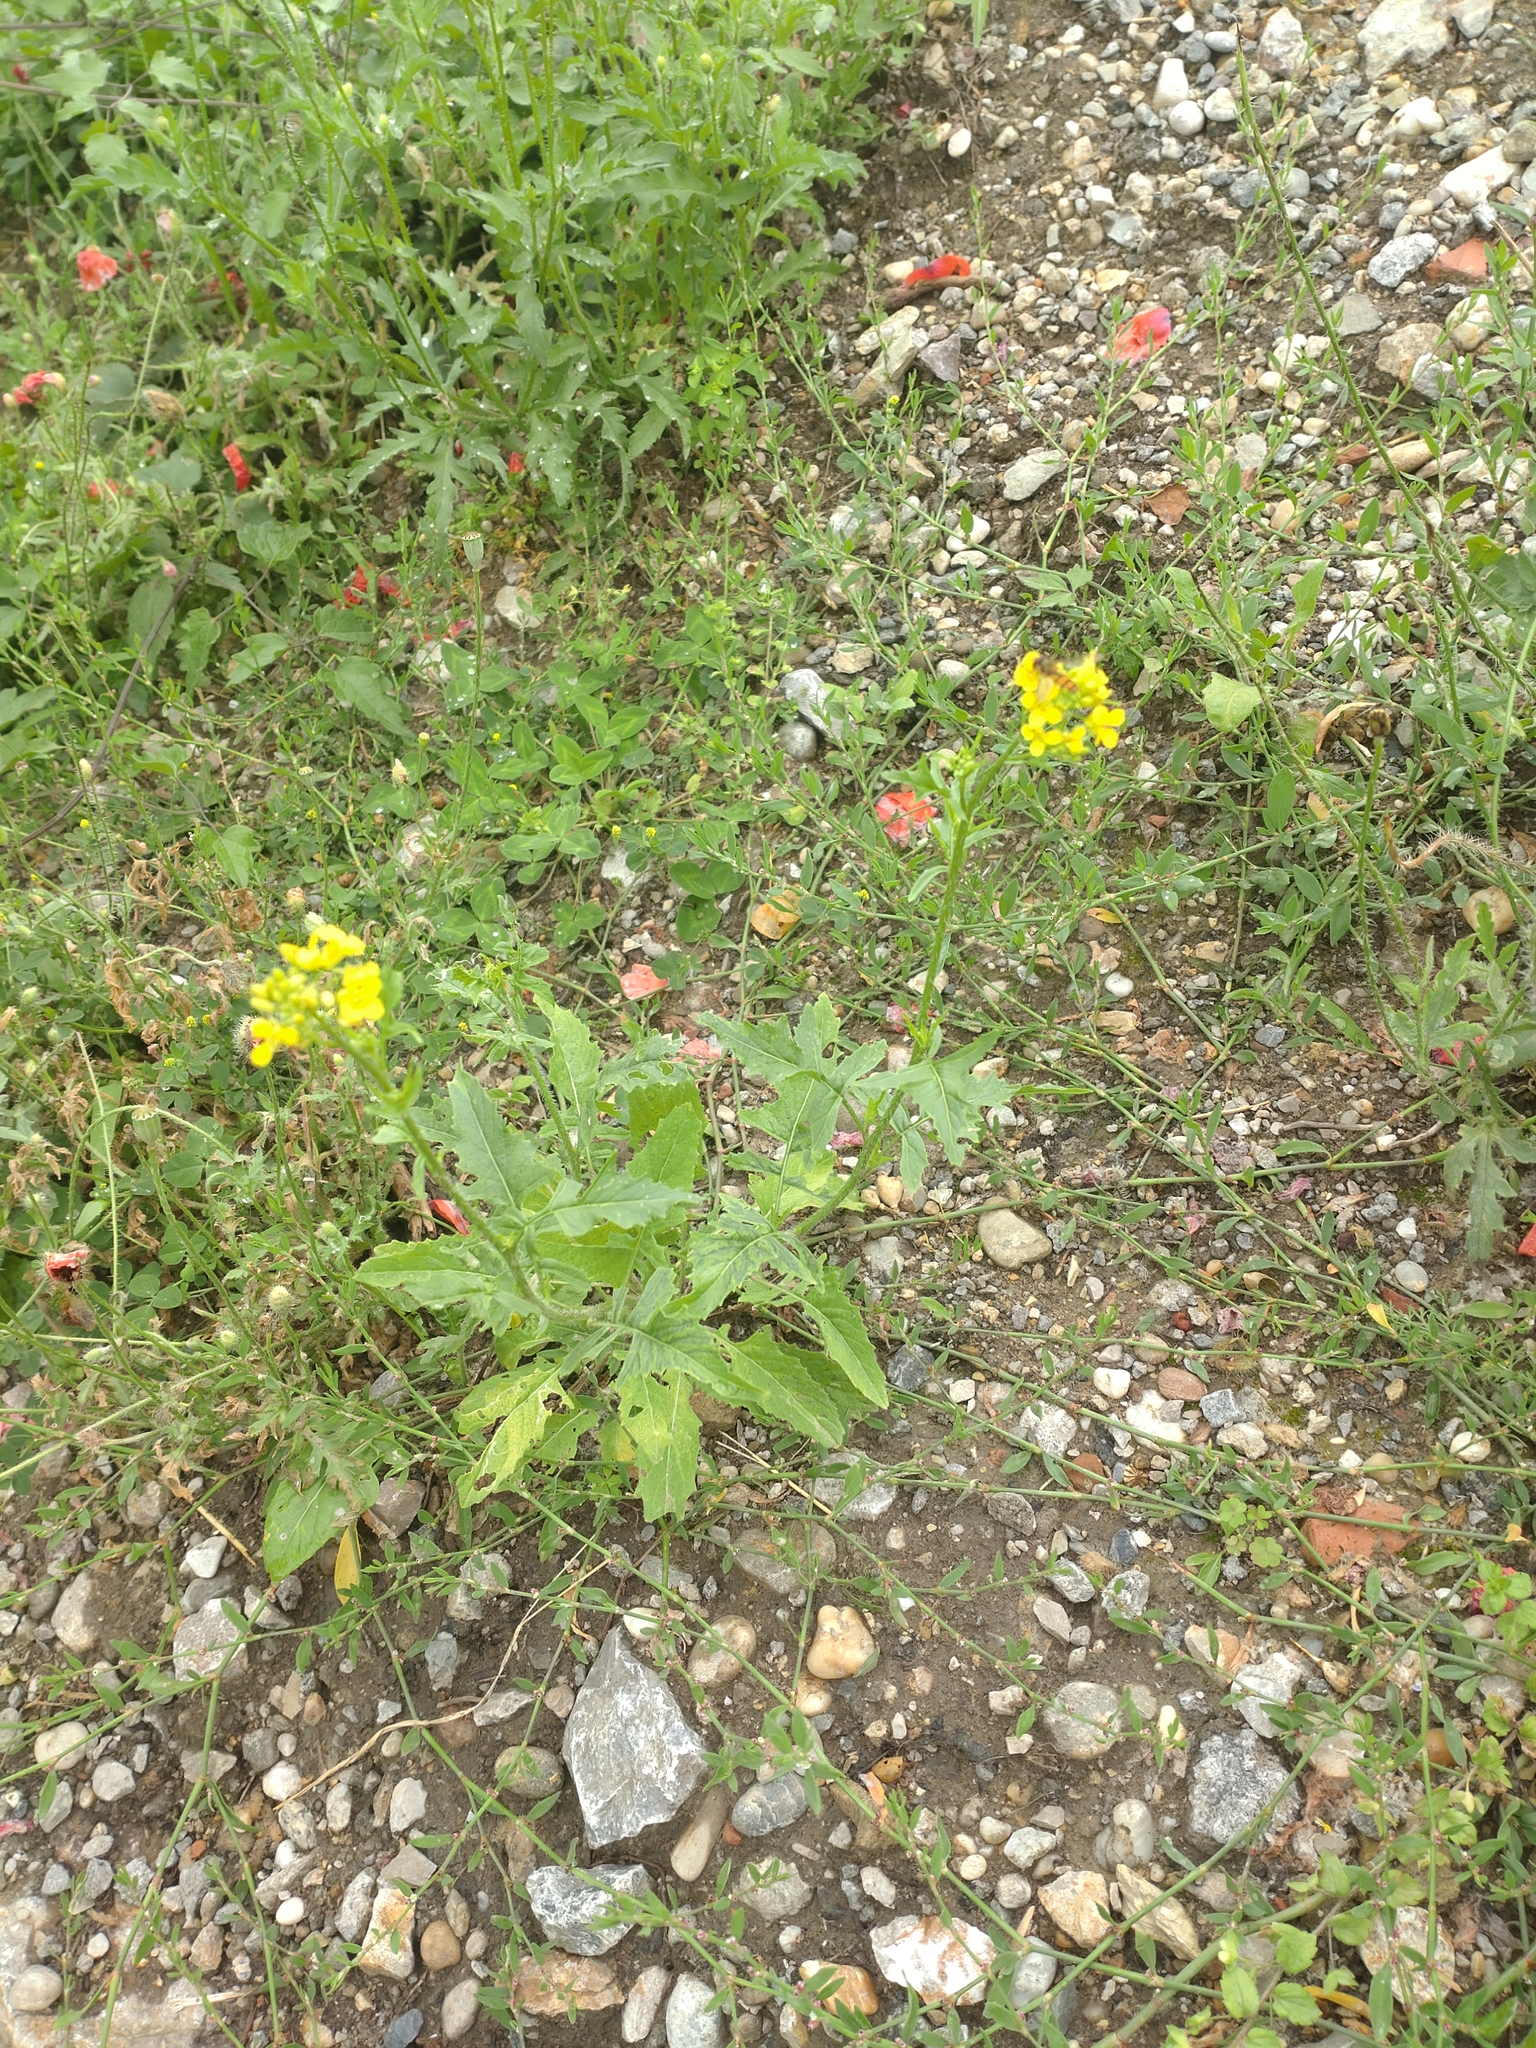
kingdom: Plantae
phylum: Tracheophyta
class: Magnoliopsida
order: Brassicales
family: Brassicaceae
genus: Sisymbrium
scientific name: Sisymbrium loeselii
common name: False london-rocket
